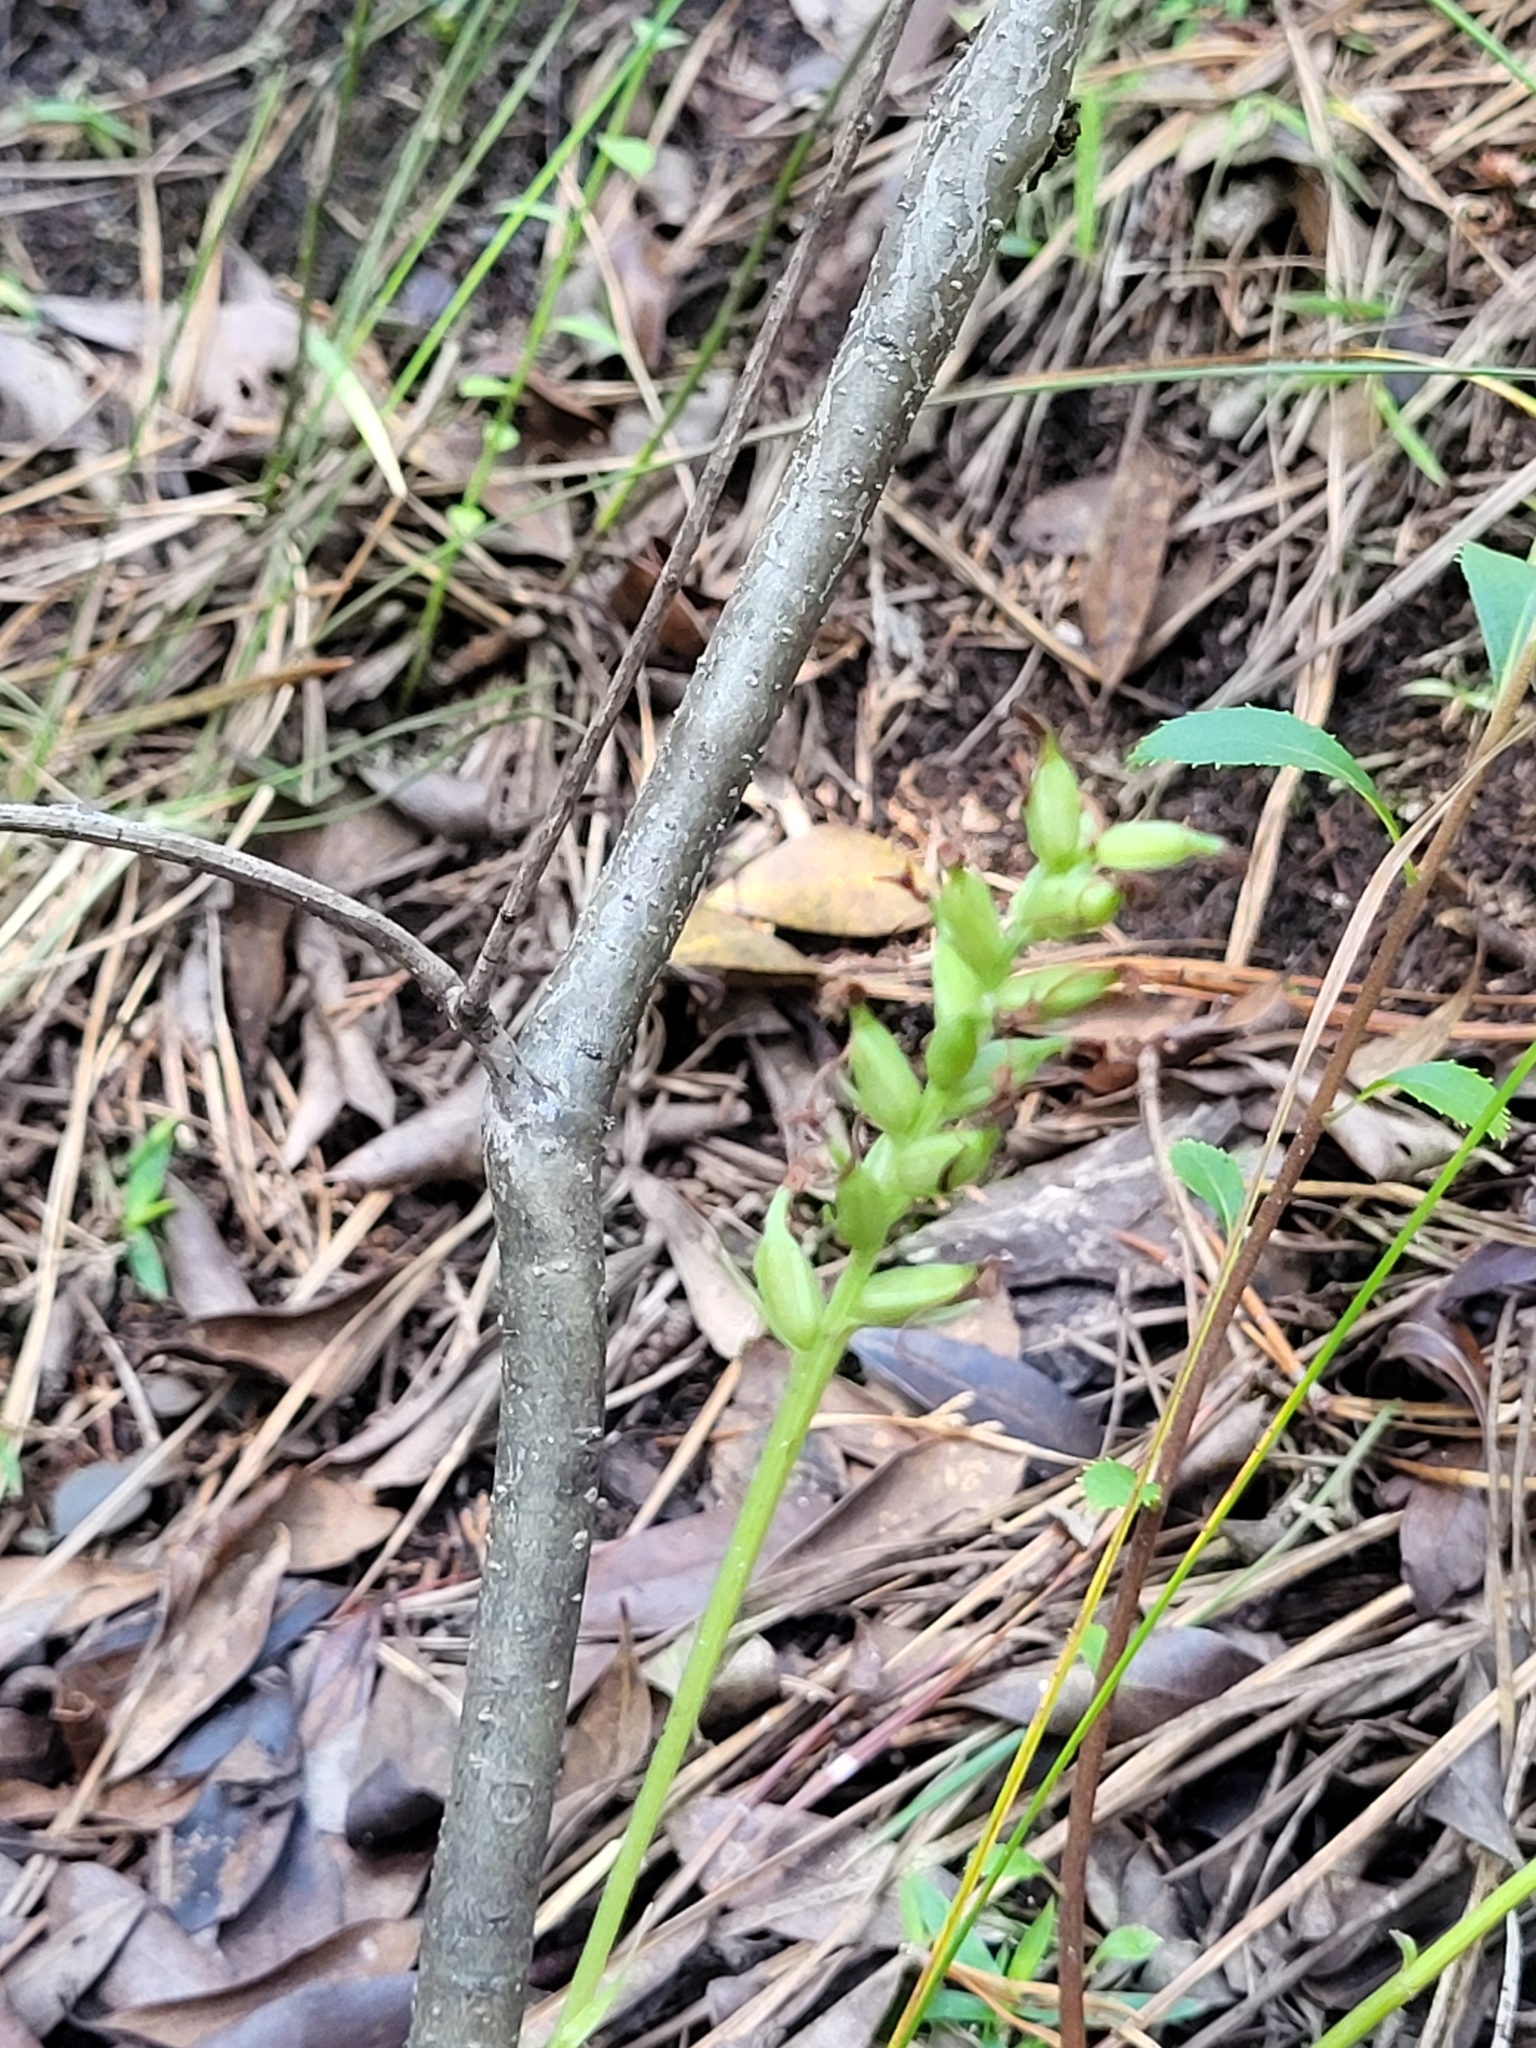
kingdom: Plantae
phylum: Tracheophyta
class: Liliopsida
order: Asparagales
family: Orchidaceae
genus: Platanthera
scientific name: Platanthera clavellata
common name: Club-spur orchid
